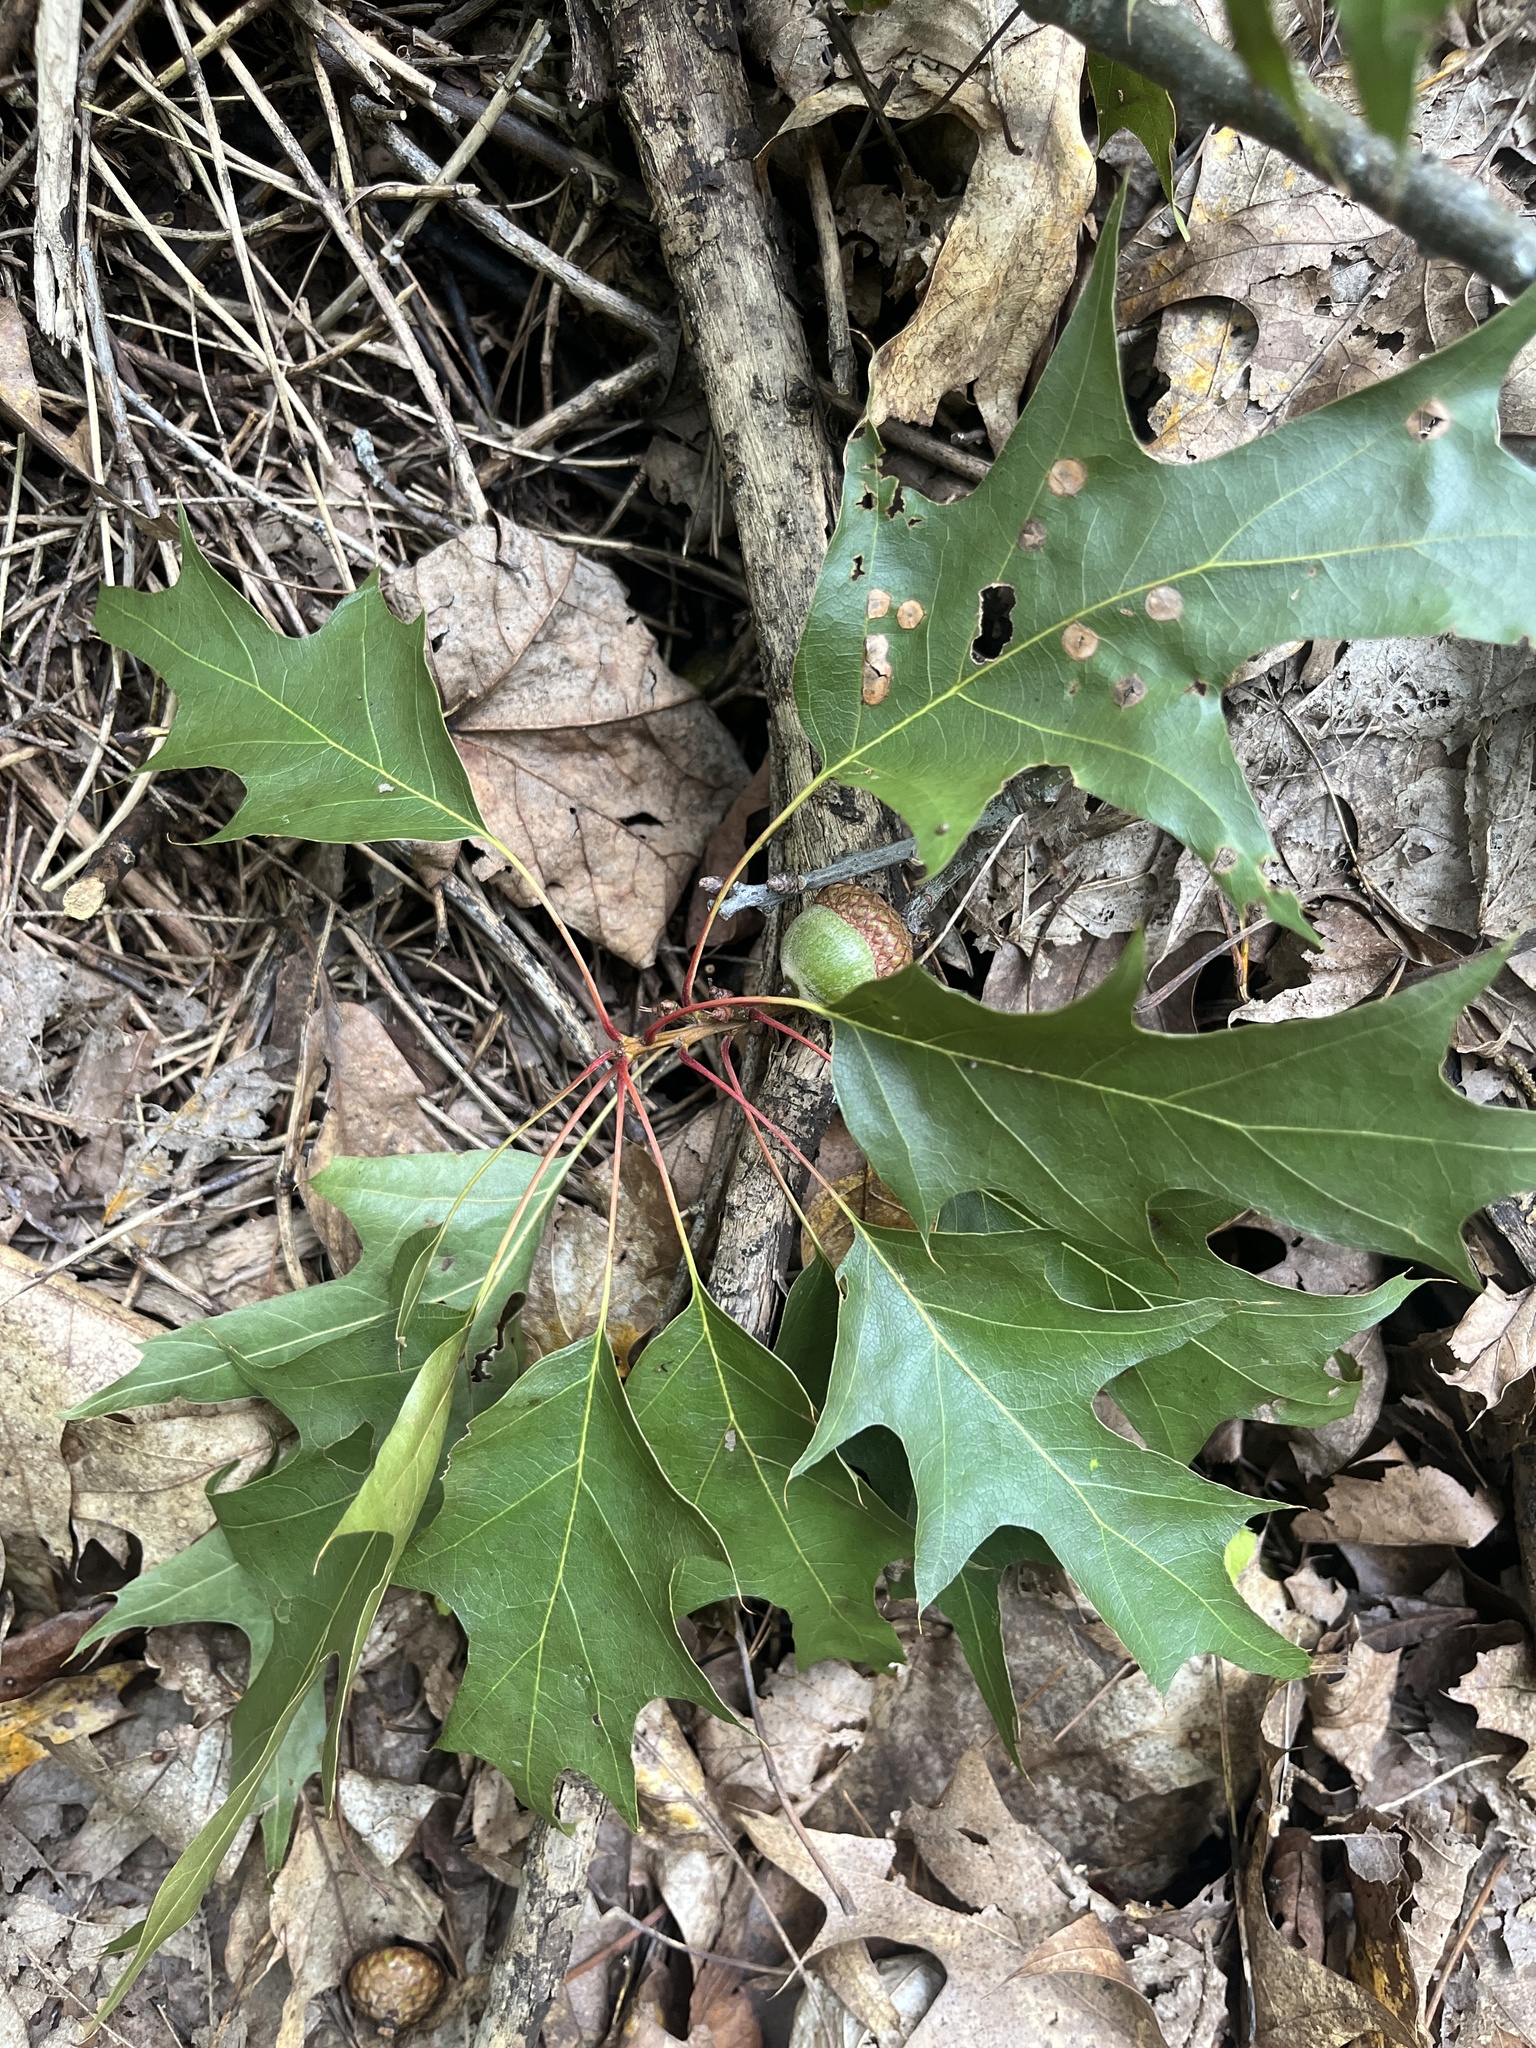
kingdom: Plantae
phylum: Tracheophyta
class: Magnoliopsida
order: Fagales
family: Fagaceae
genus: Quercus
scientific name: Quercus rubra
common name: Red oak
